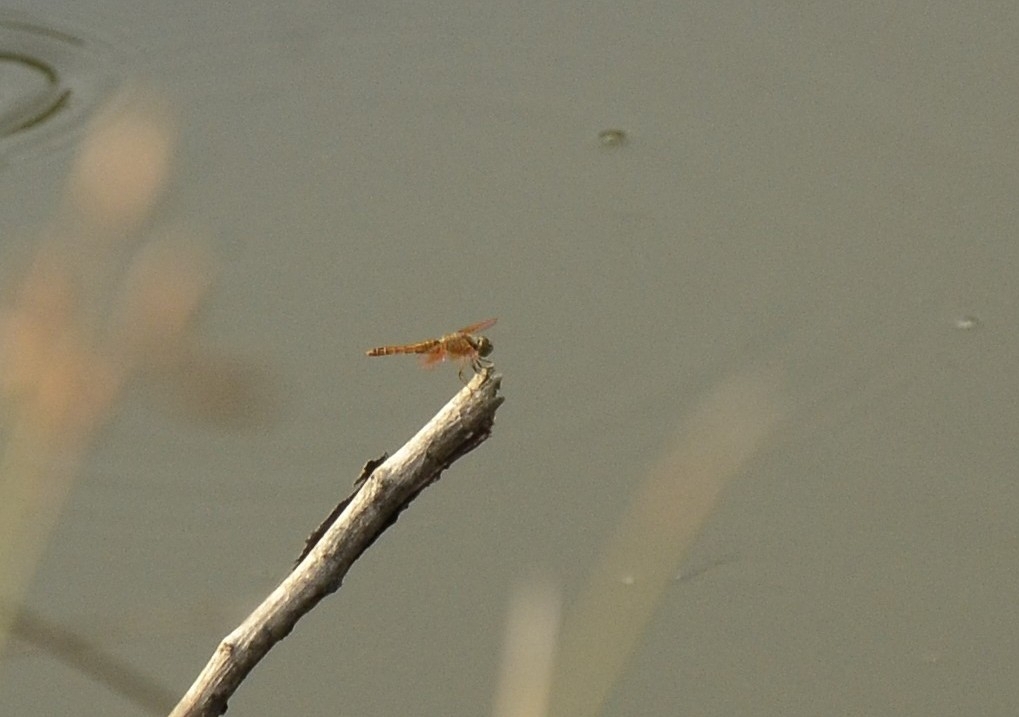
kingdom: Animalia
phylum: Arthropoda
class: Insecta
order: Odonata
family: Libellulidae
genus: Brachythemis
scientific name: Brachythemis contaminata
